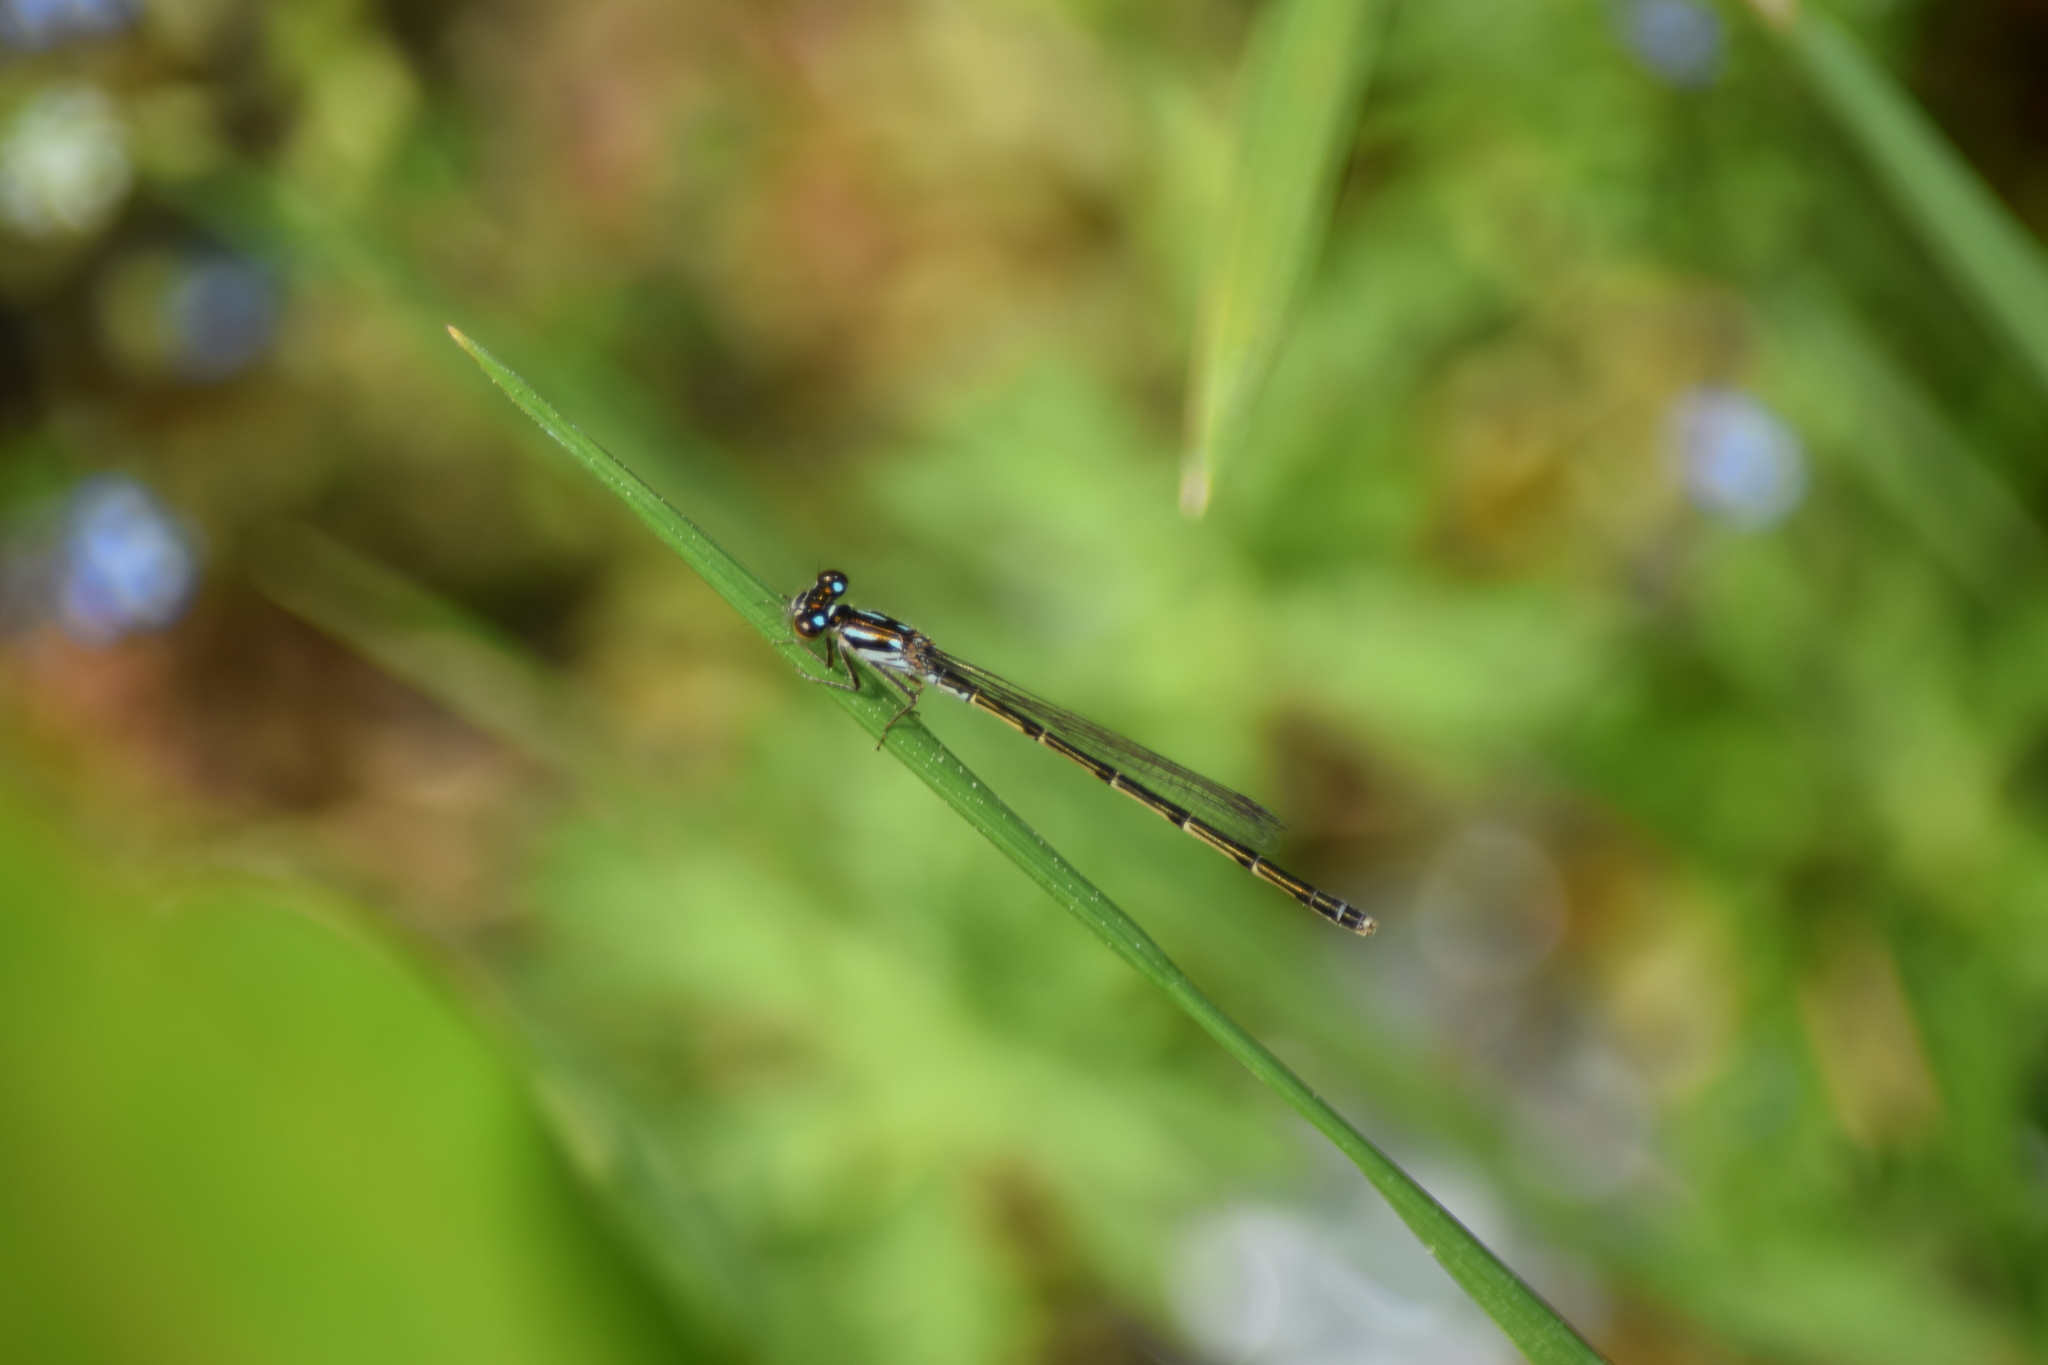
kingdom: Animalia
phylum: Arthropoda
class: Insecta
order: Odonata
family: Coenagrionidae
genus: Ischnura
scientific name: Ischnura posita
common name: Fragile forktail
